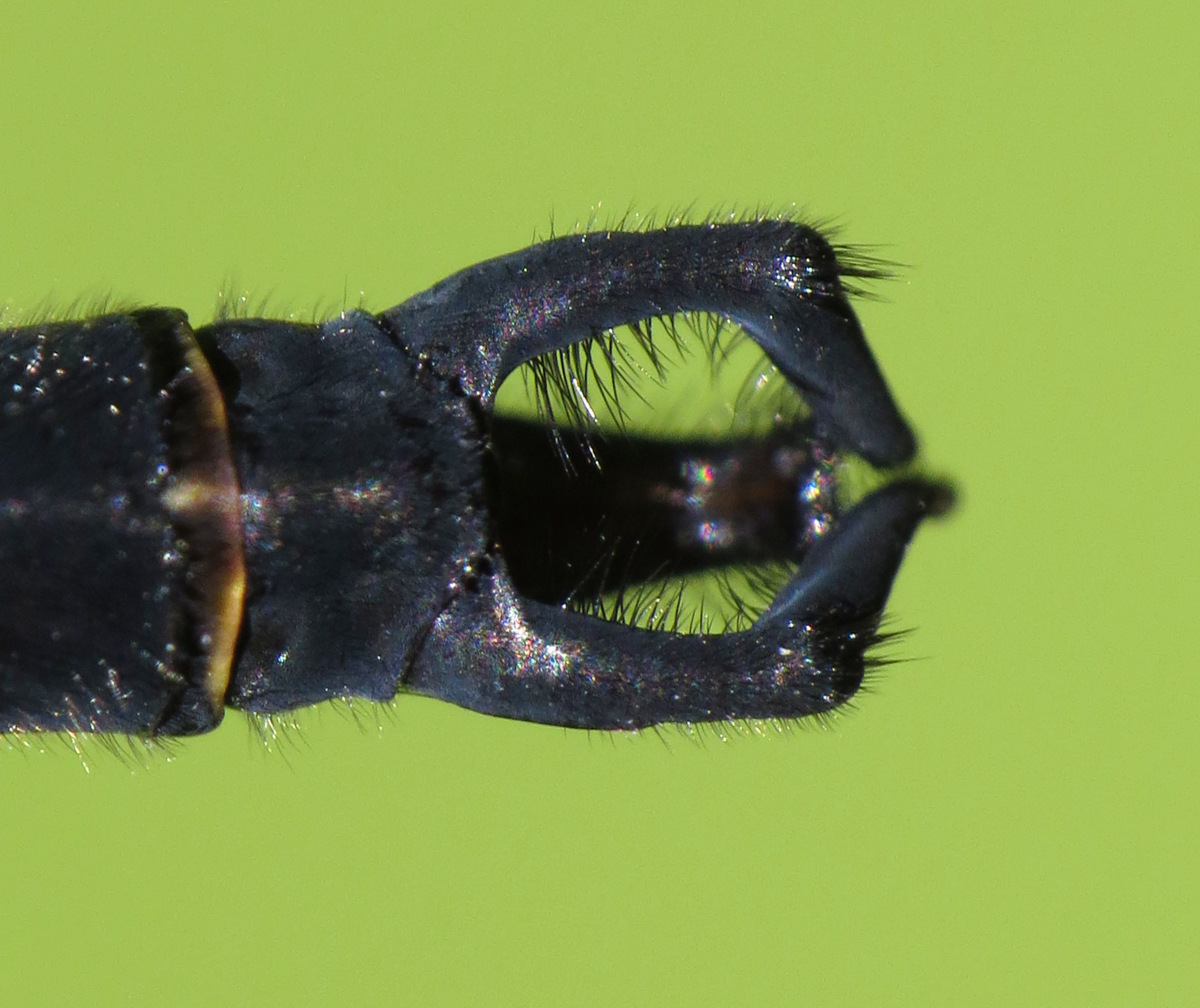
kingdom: Animalia
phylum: Arthropoda
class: Insecta
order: Odonata
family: Corduliidae
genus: Somatochlora
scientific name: Somatochlora tenebrosa
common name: Clamp-tipped emerald
